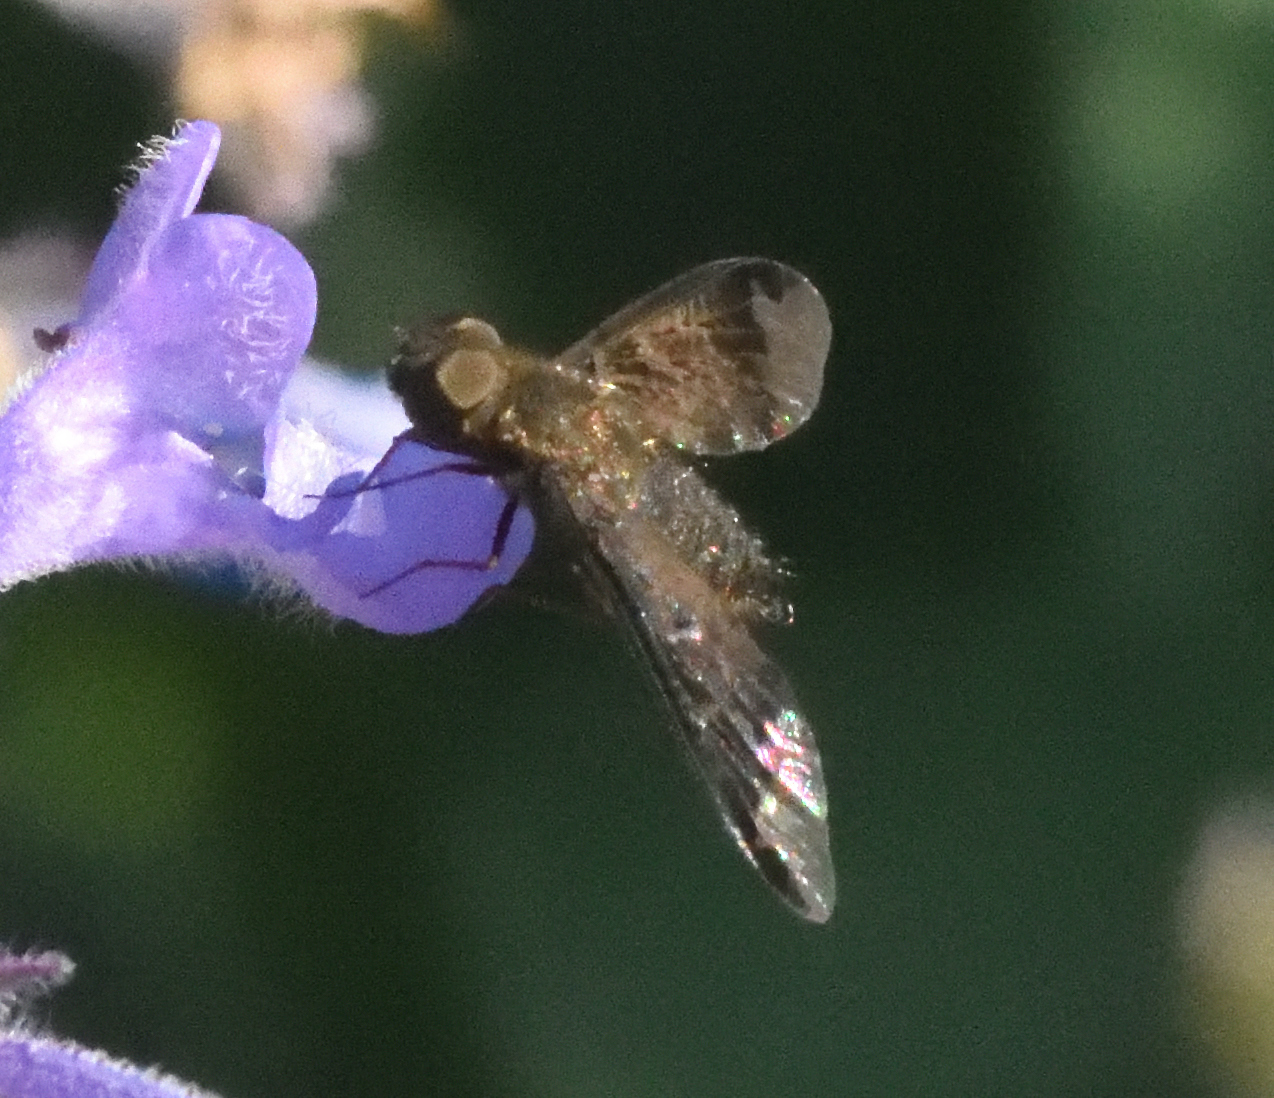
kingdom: Animalia
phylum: Arthropoda
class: Insecta
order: Diptera
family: Bombyliidae
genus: Hemipenthes
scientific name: Hemipenthes sinuosus
